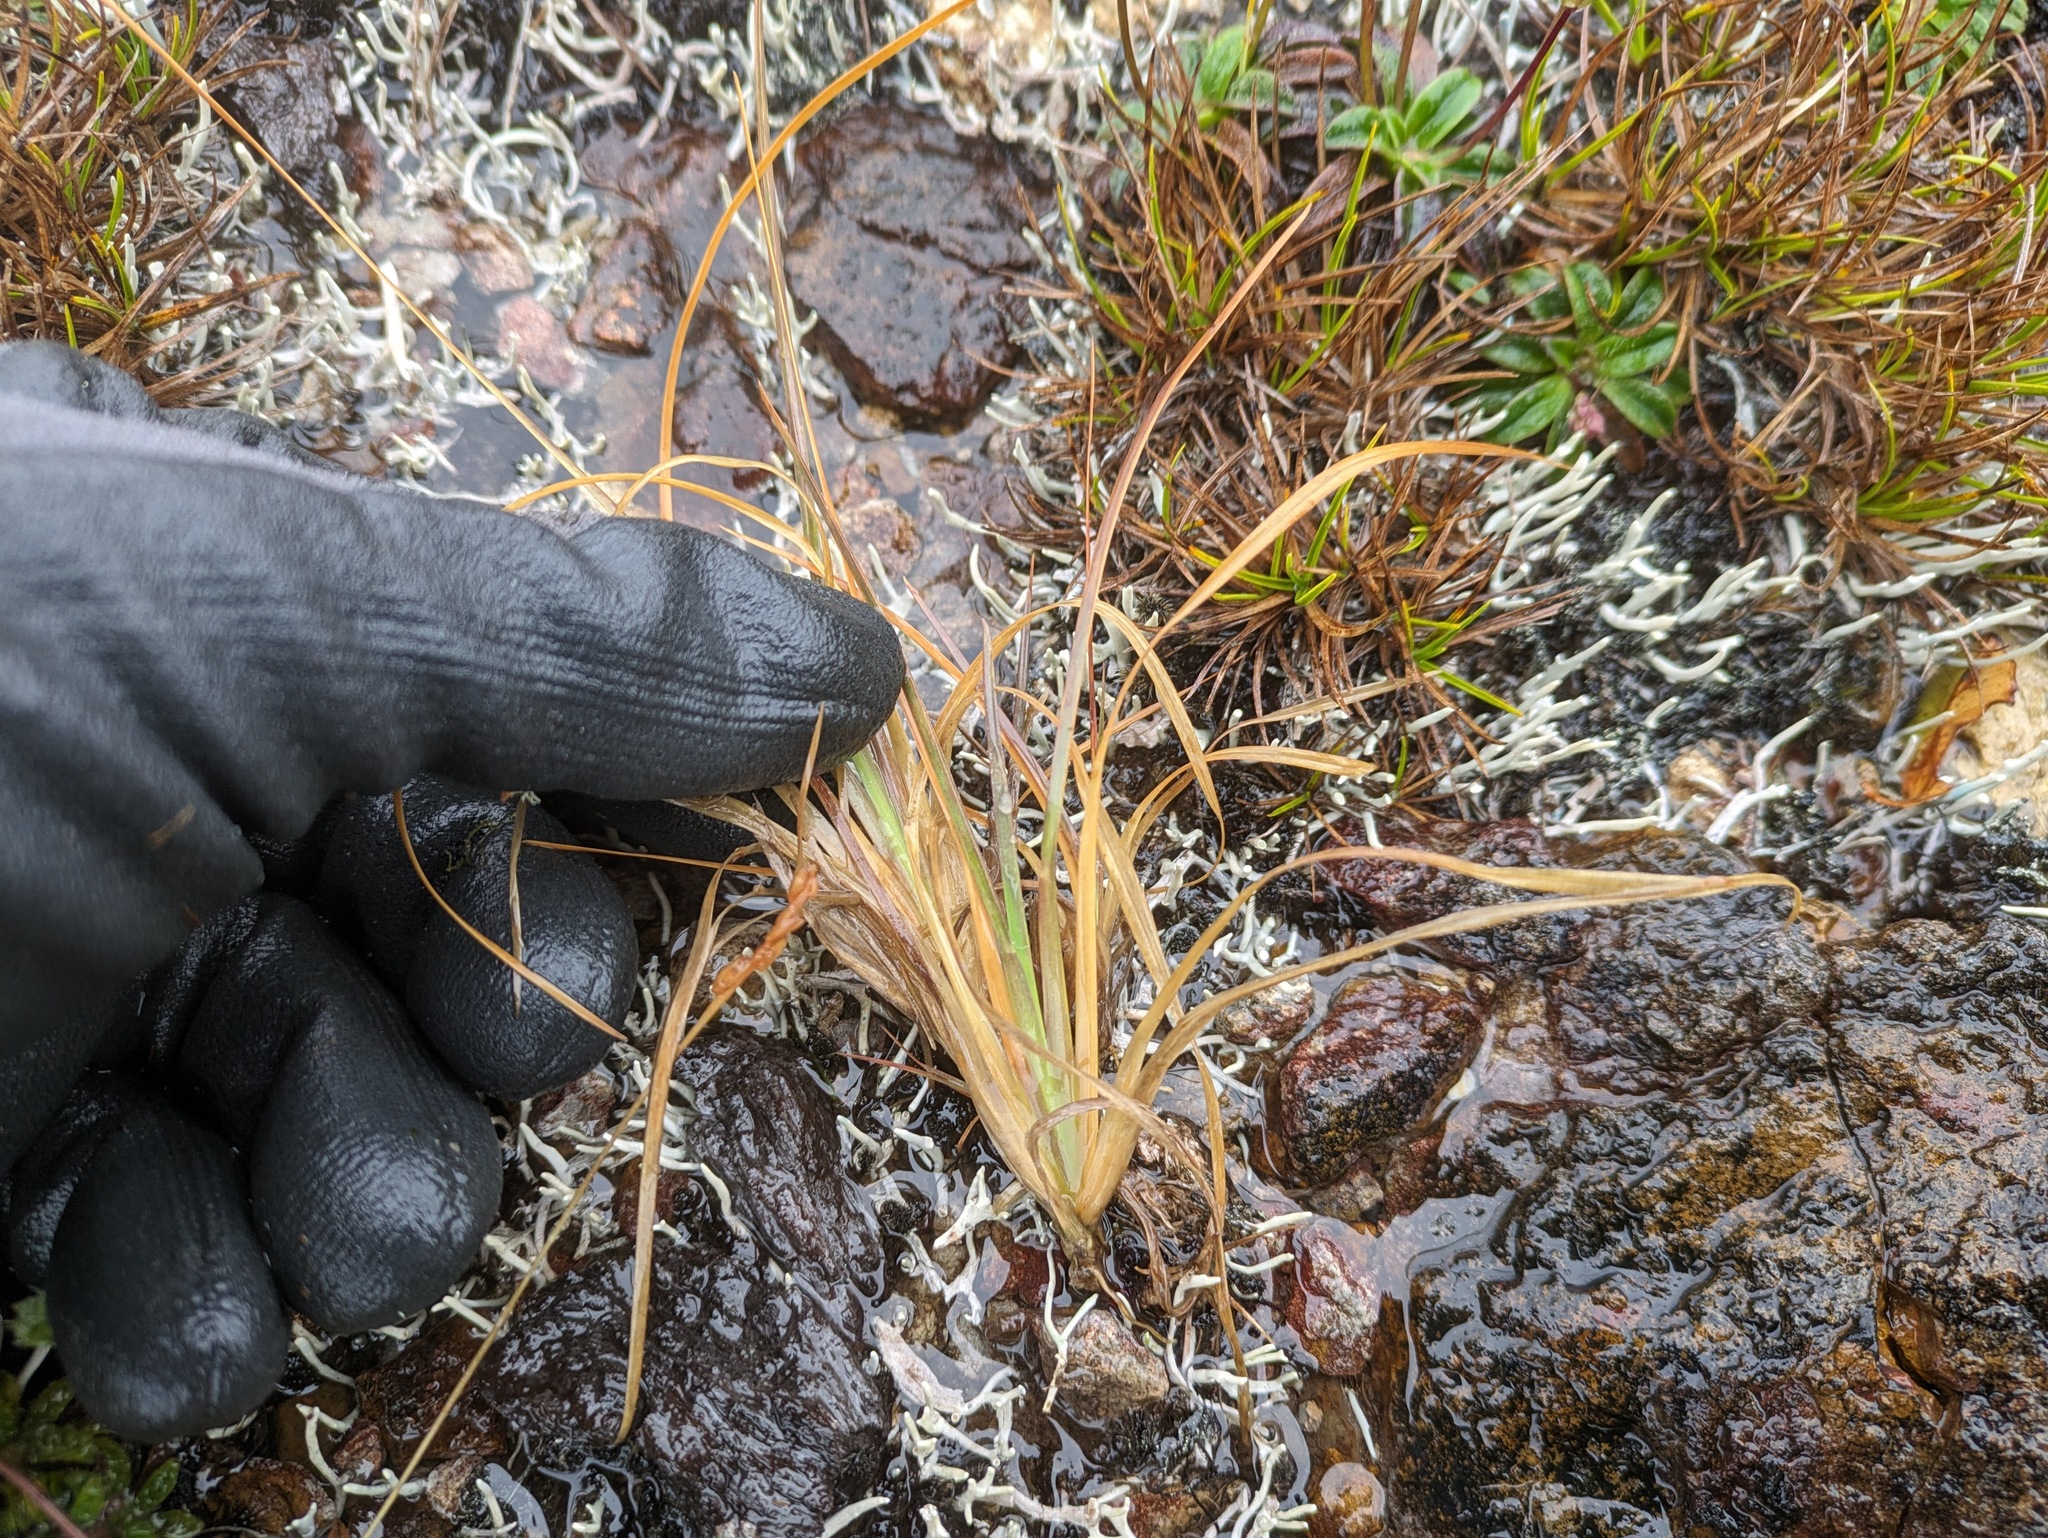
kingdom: Plantae
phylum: Tracheophyta
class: Liliopsida
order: Poales
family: Poaceae
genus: Andropogon
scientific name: Andropogon virginicus
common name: Broomsedge bluestem
